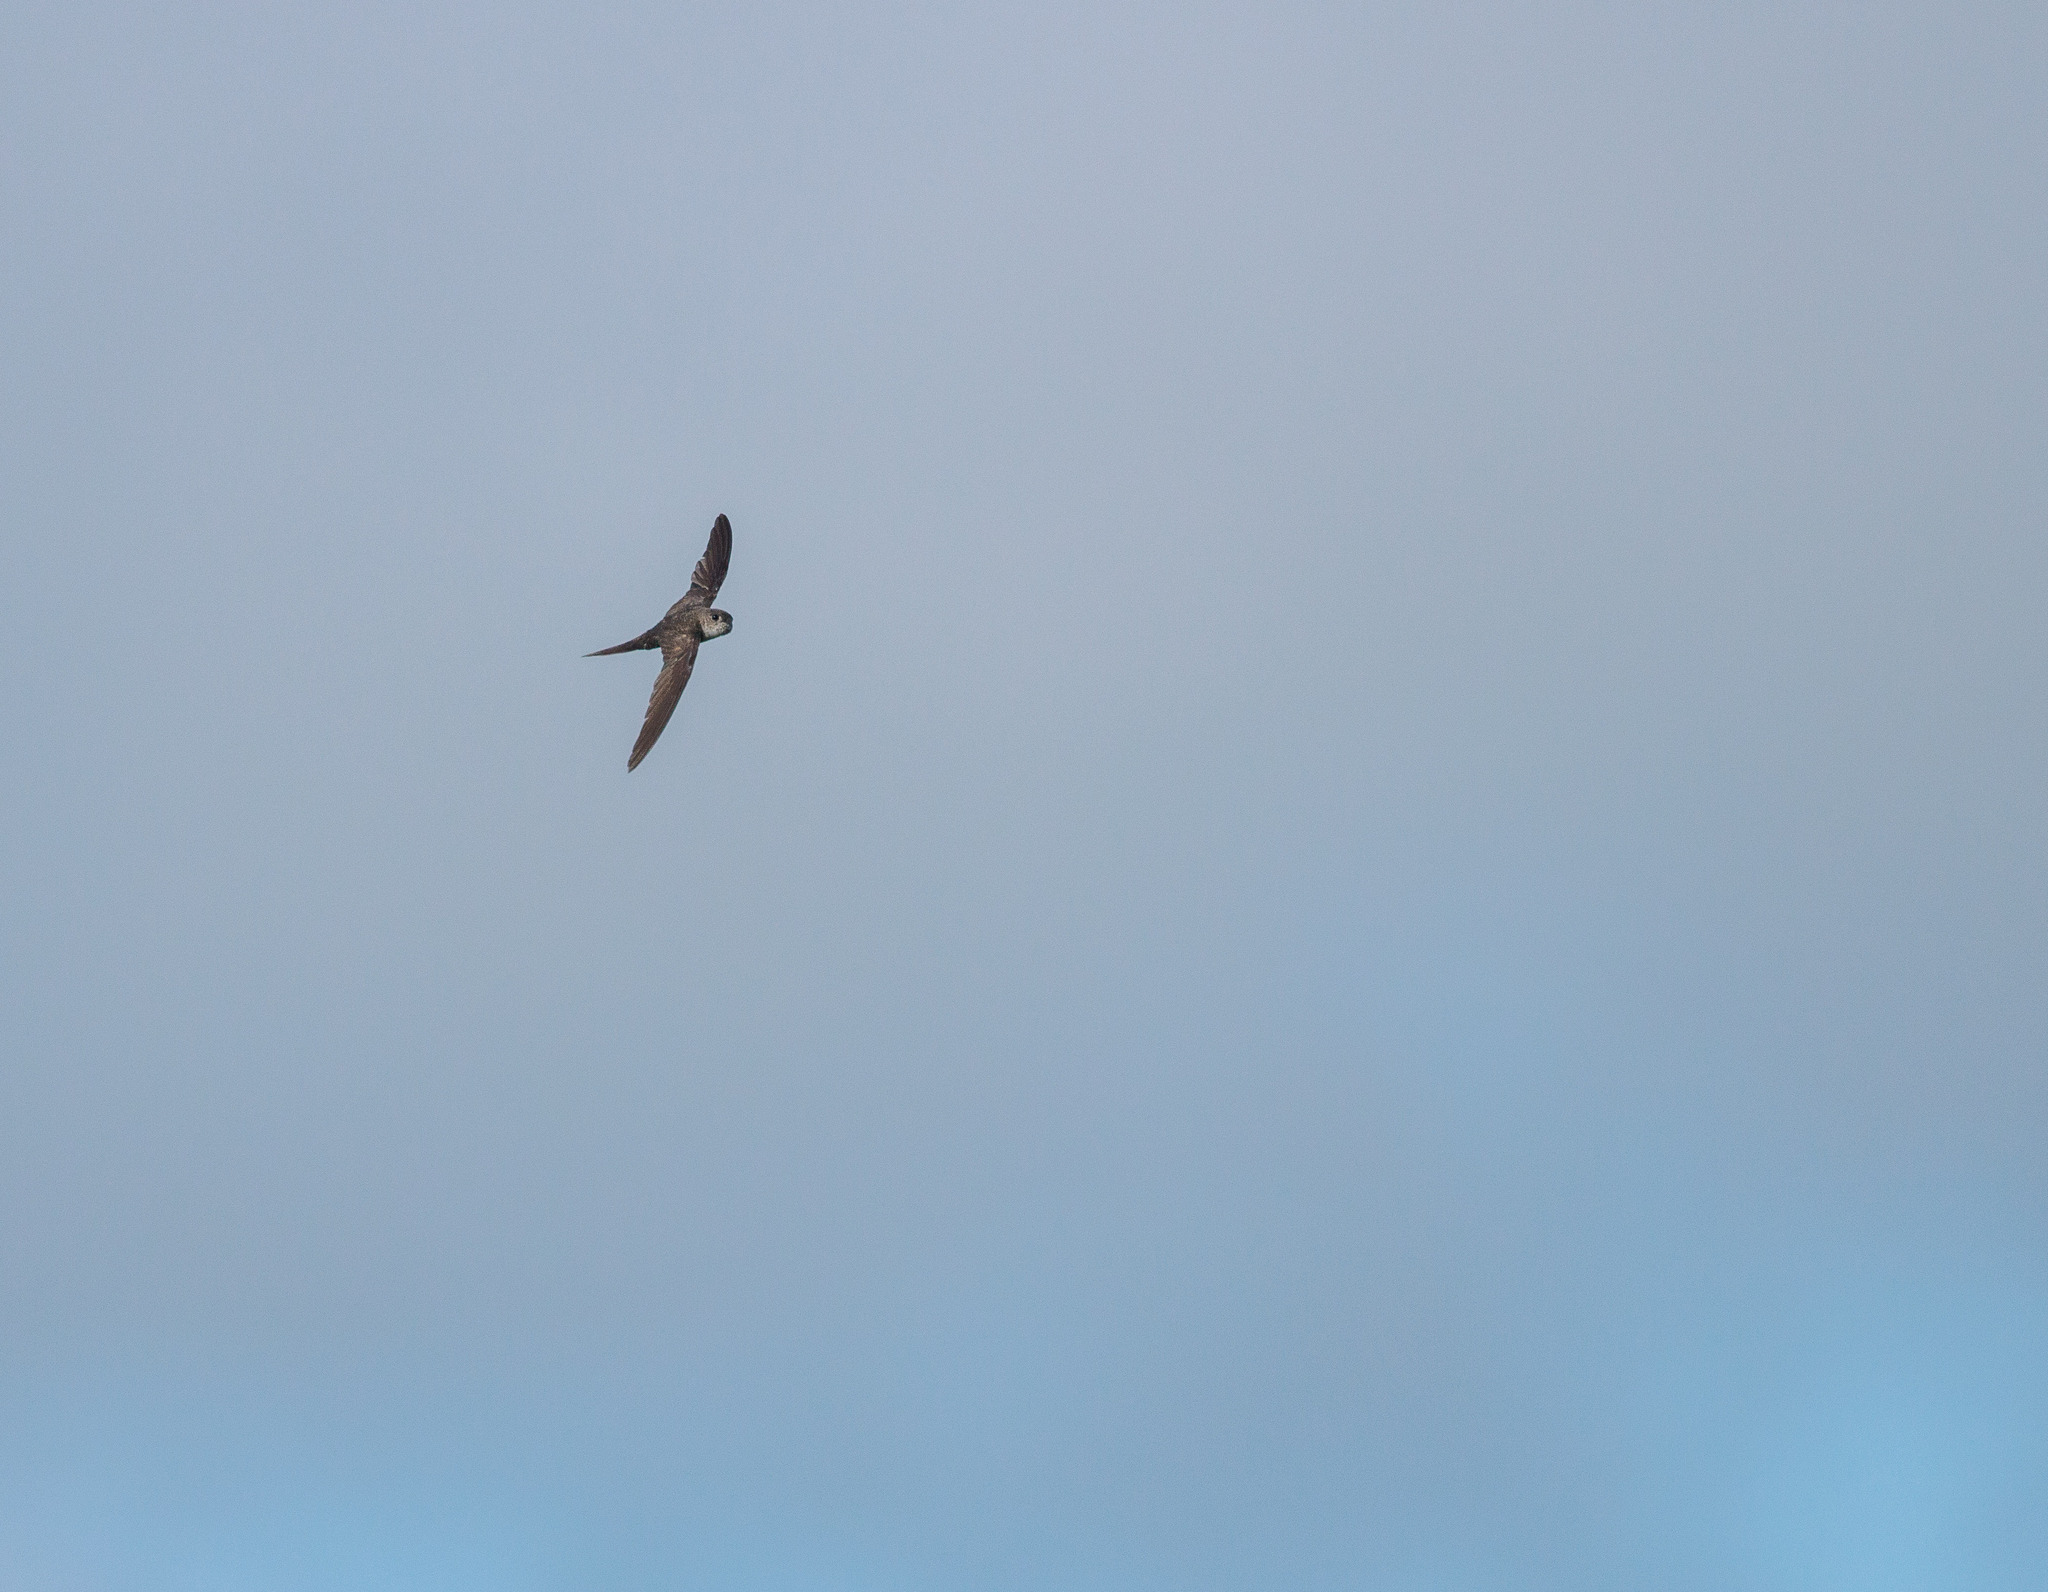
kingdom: Animalia
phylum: Chordata
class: Aves
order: Apodiformes
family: Apodidae
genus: Tachornis
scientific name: Tachornis squamata
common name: Neotropical palm swift
